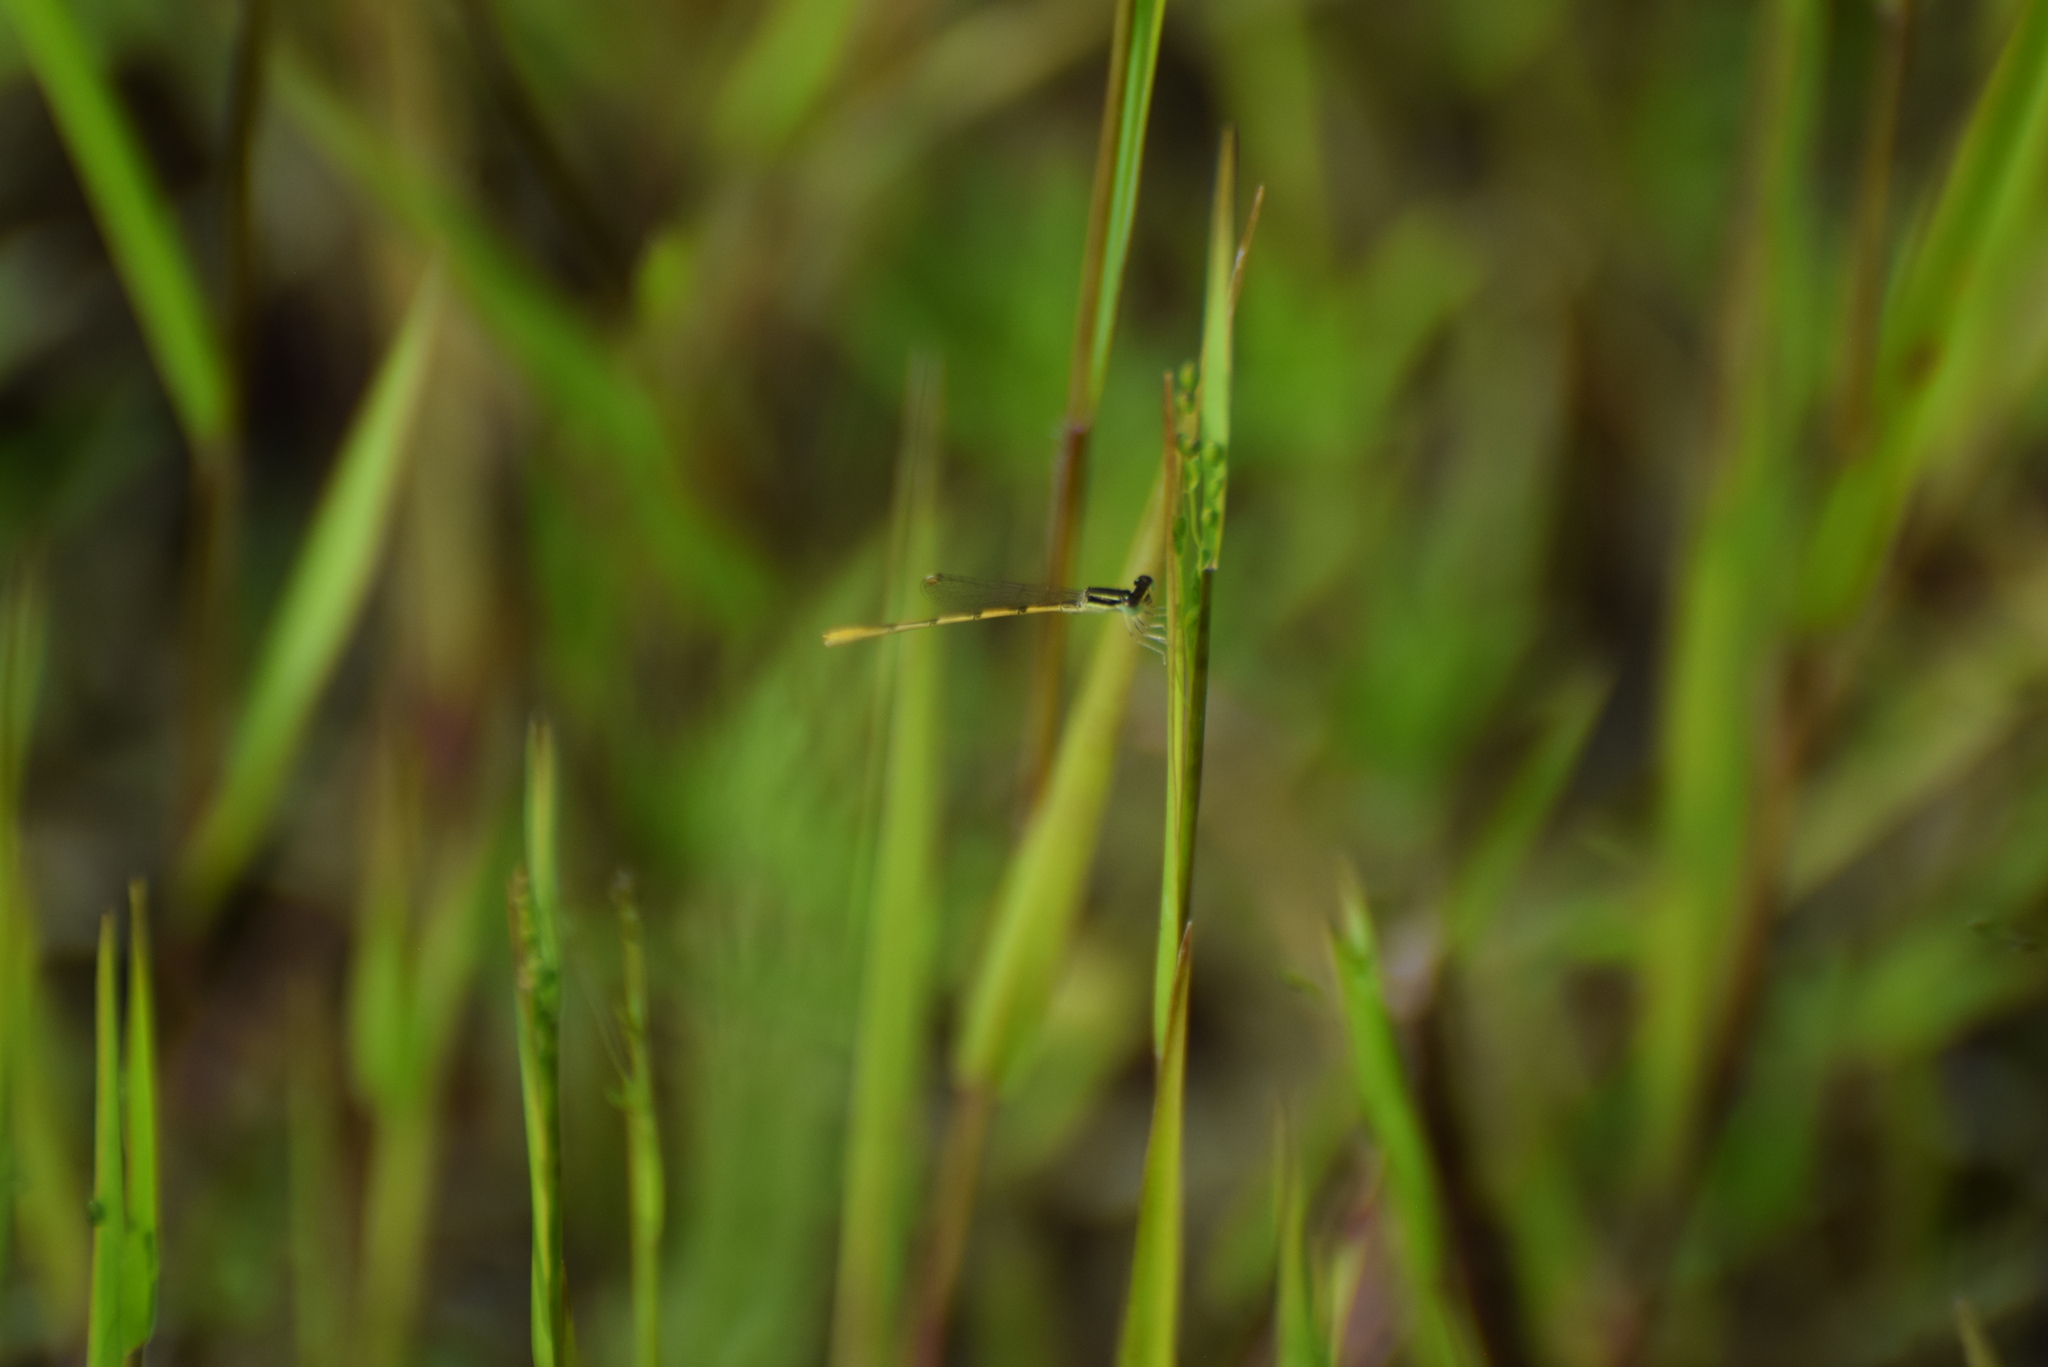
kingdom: Animalia
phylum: Arthropoda
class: Insecta
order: Odonata
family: Coenagrionidae
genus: Ischnura
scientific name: Ischnura hastata
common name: Citrine forktail
